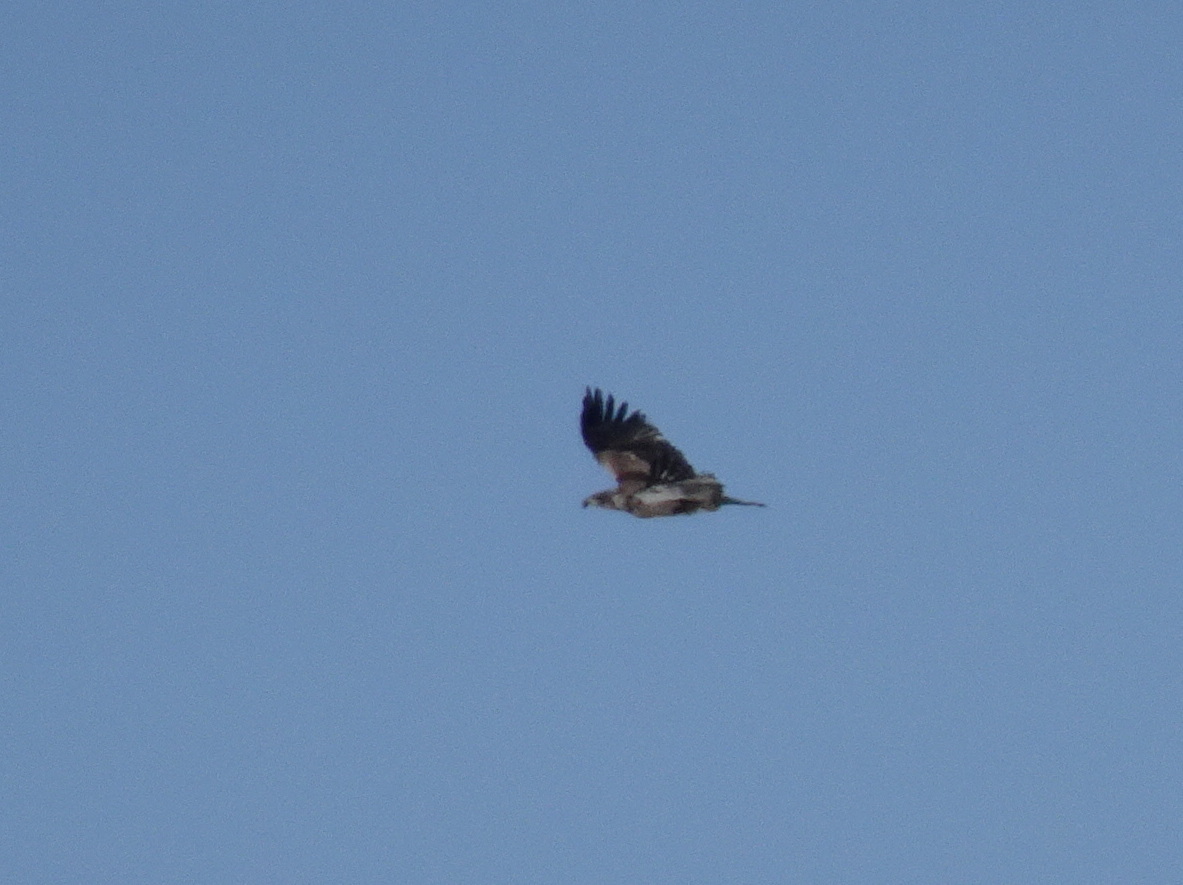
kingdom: Animalia
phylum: Chordata
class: Aves
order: Accipitriformes
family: Accipitridae
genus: Haliaeetus
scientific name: Haliaeetus leucocephalus
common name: Bald eagle
